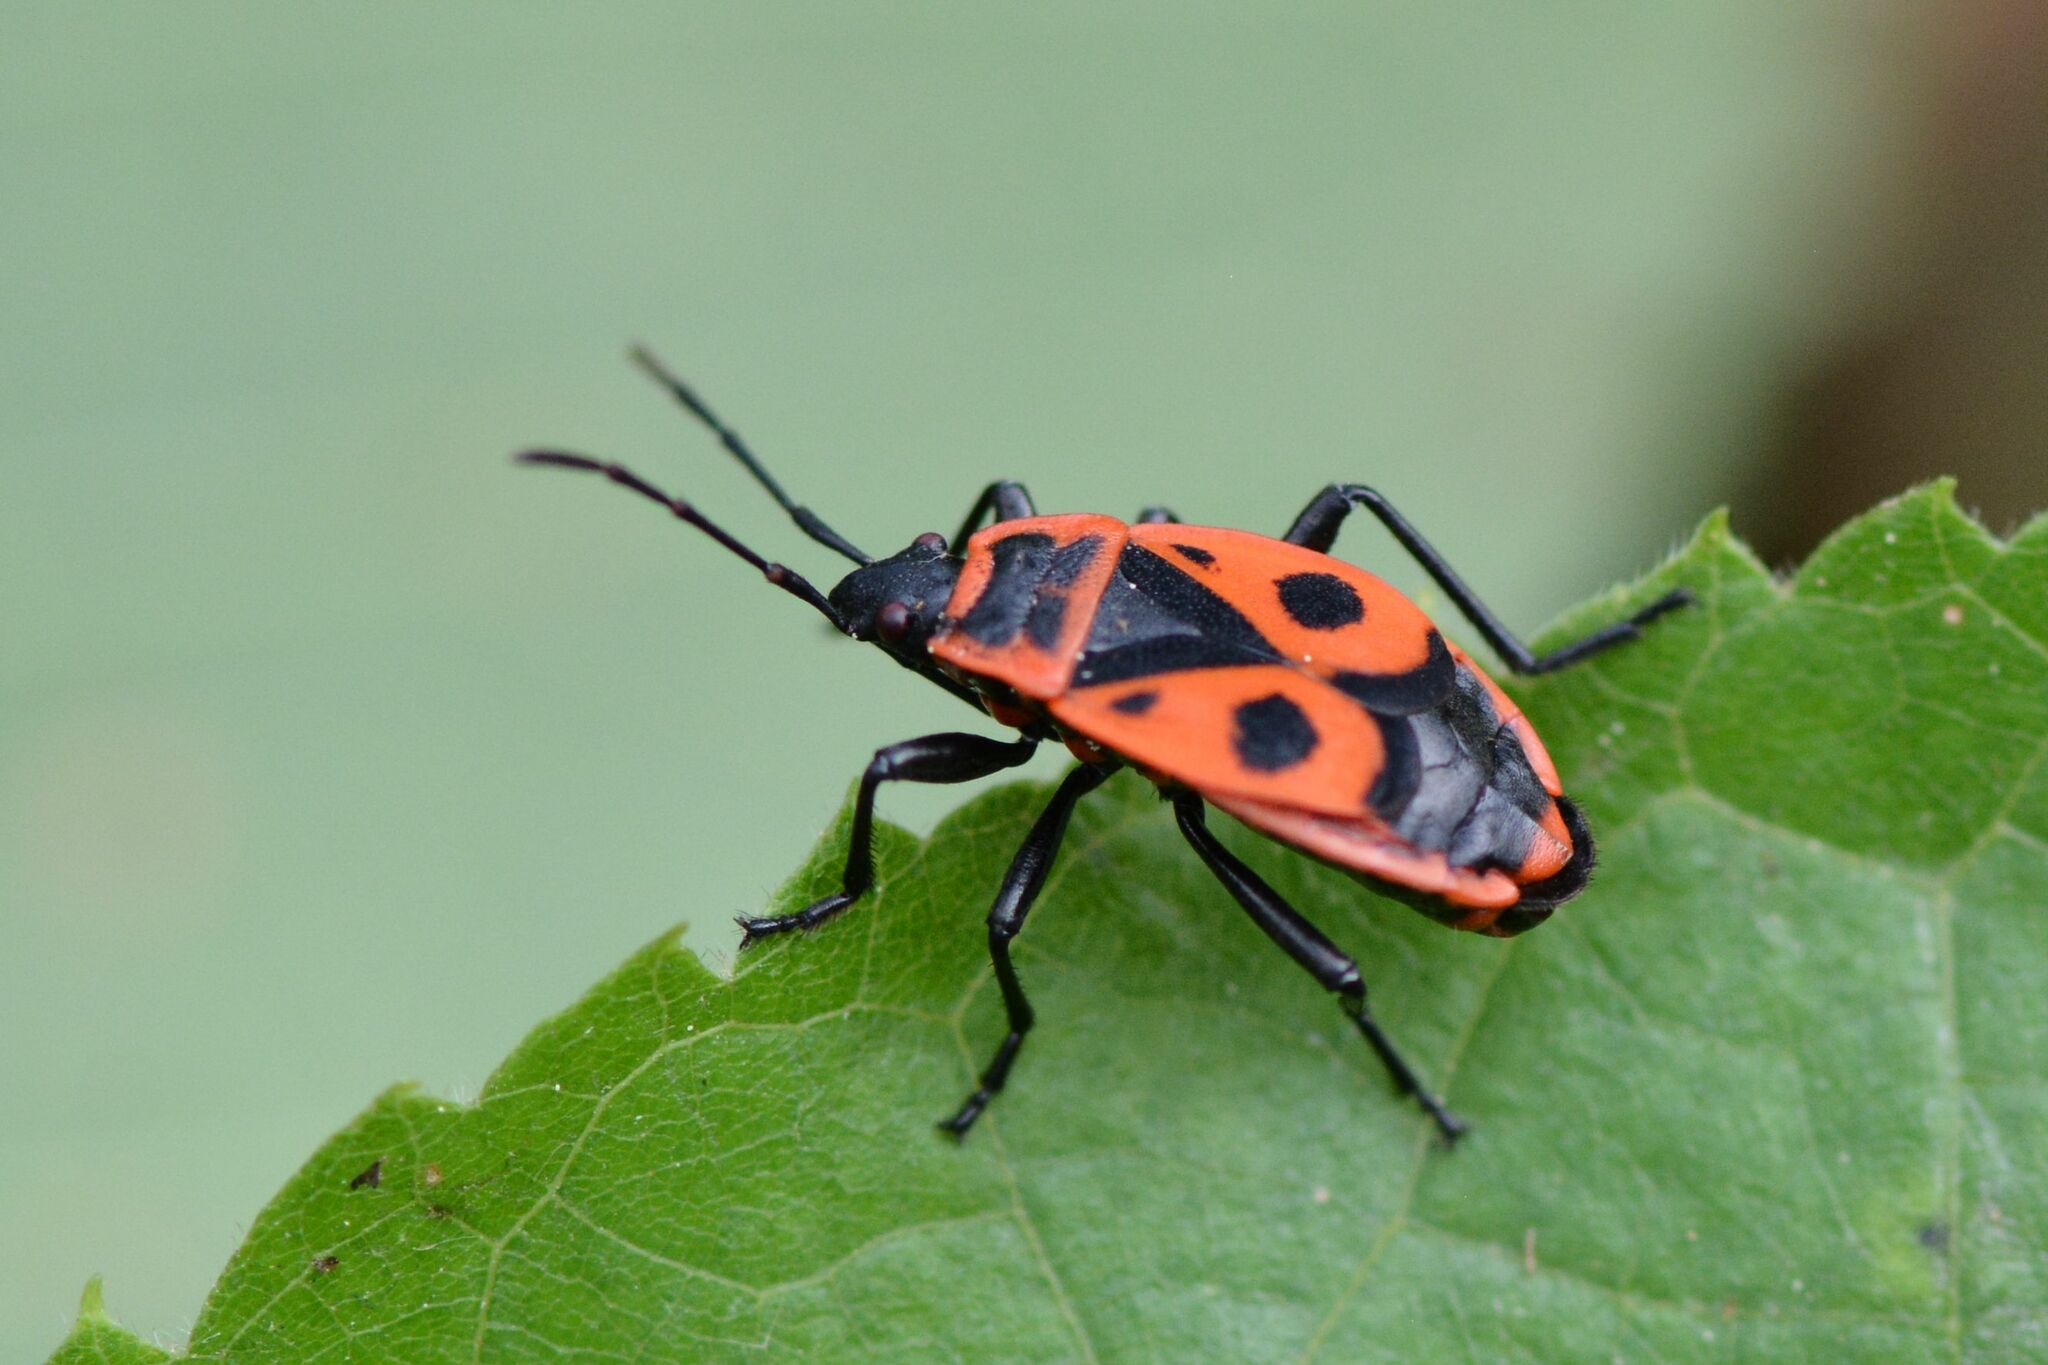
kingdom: Animalia
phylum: Arthropoda
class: Insecta
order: Hemiptera
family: Pyrrhocoridae
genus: Pyrrhocoris
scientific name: Pyrrhocoris apterus
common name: Firebug
